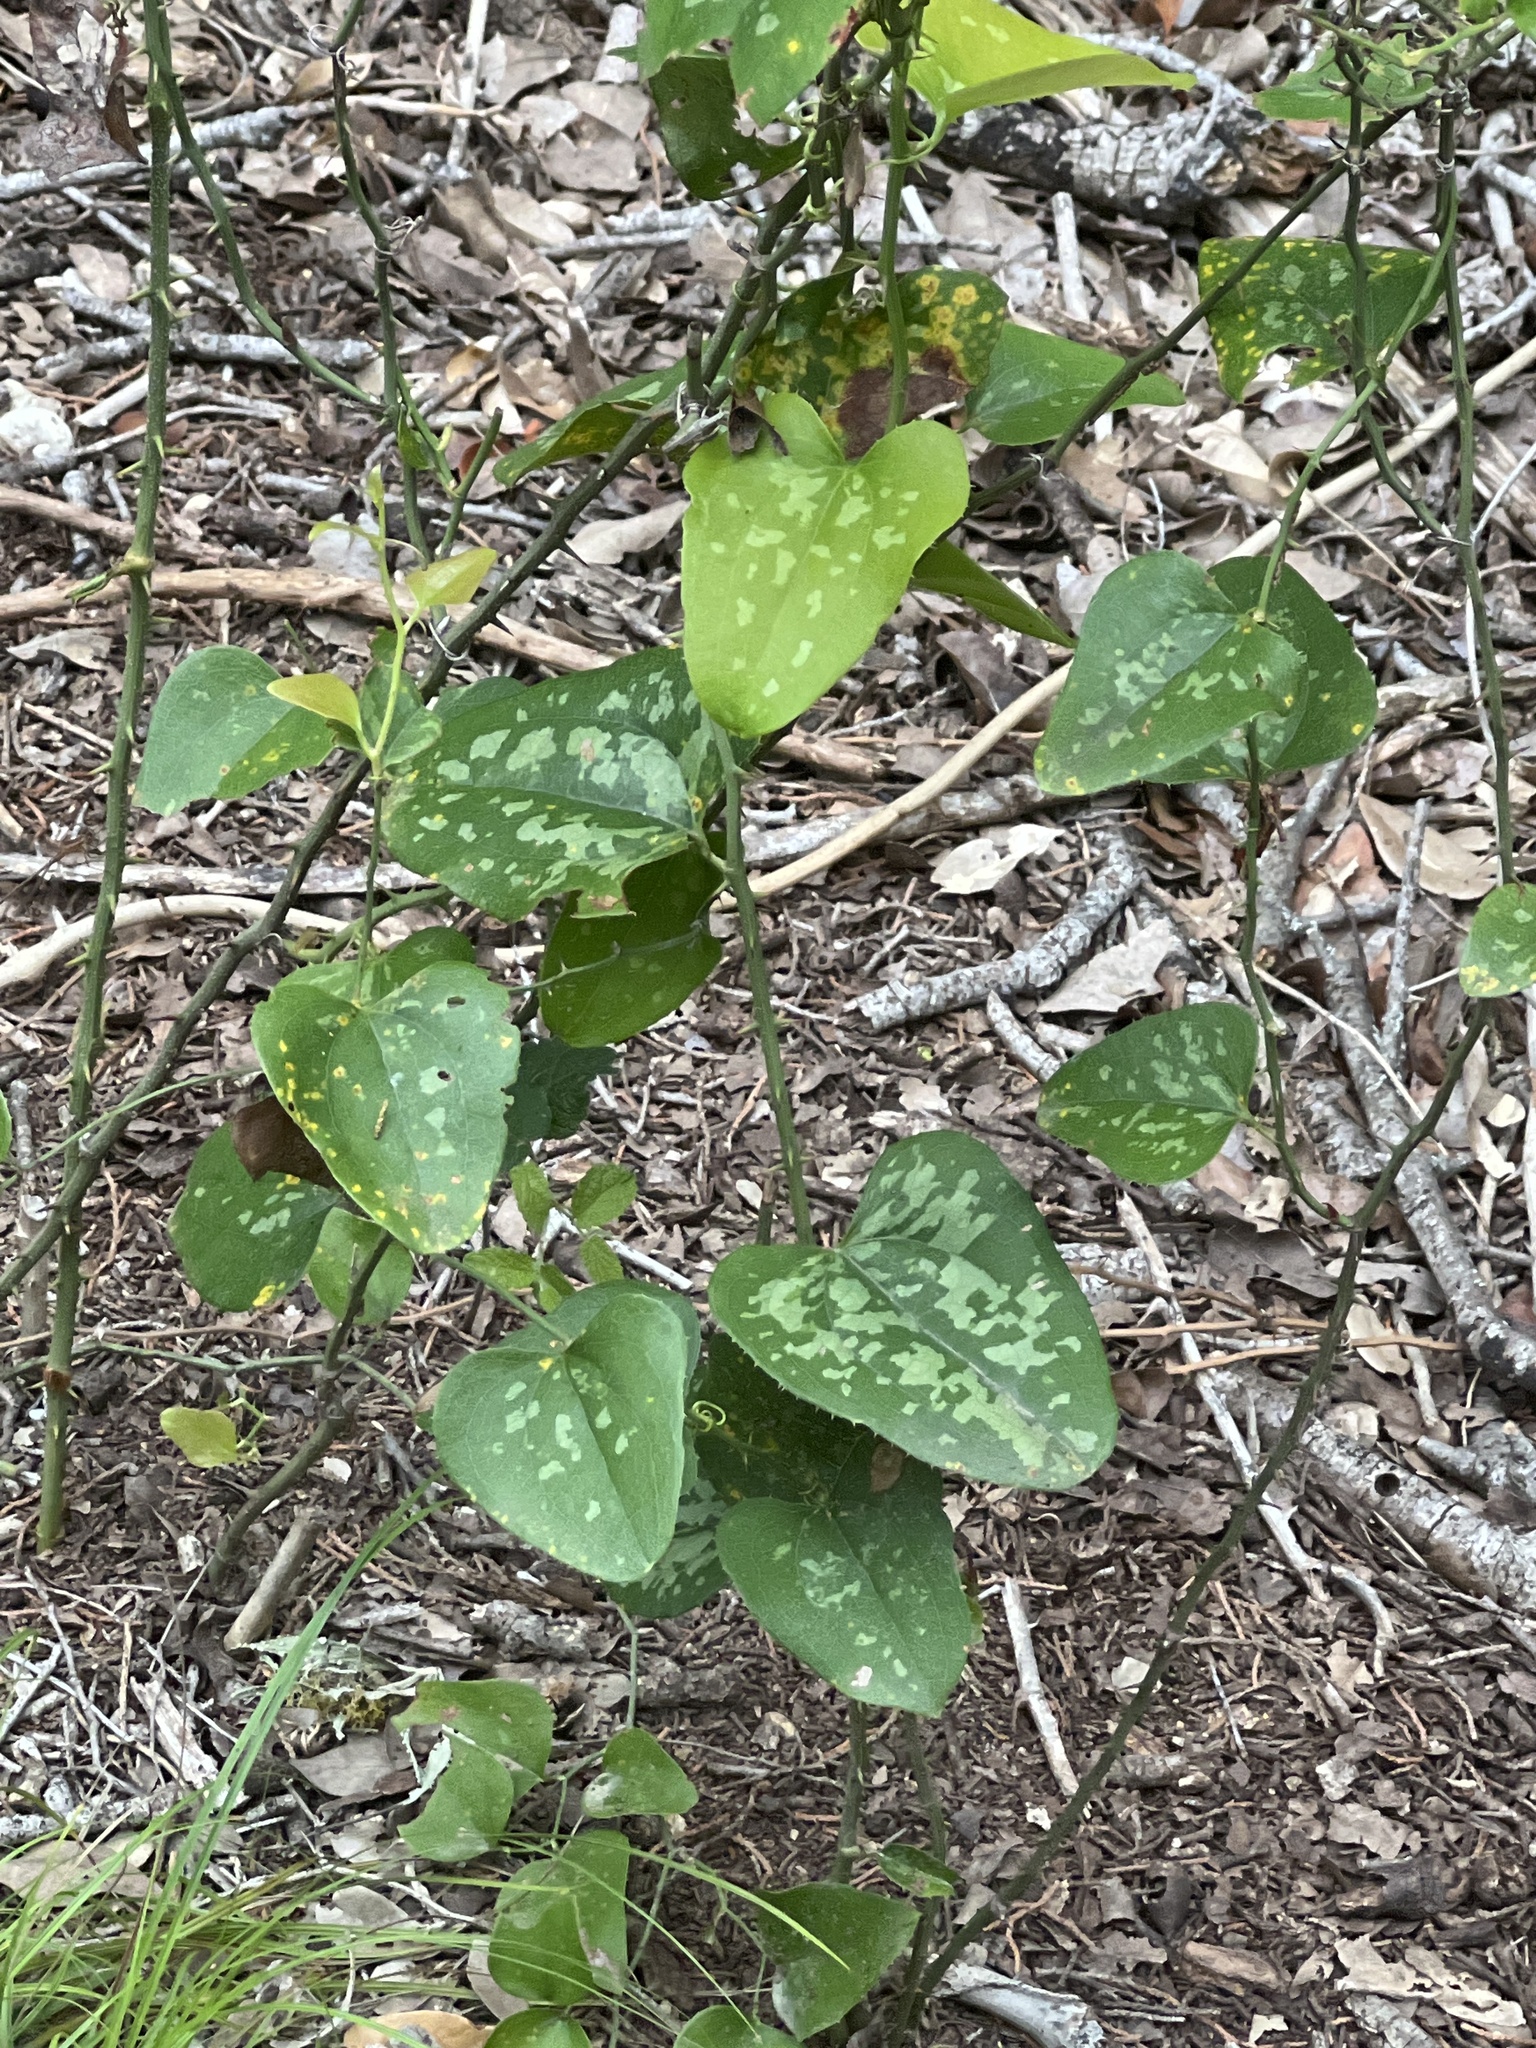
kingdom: Plantae
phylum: Tracheophyta
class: Liliopsida
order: Liliales
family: Smilacaceae
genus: Smilax
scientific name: Smilax bona-nox
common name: Catbrier
